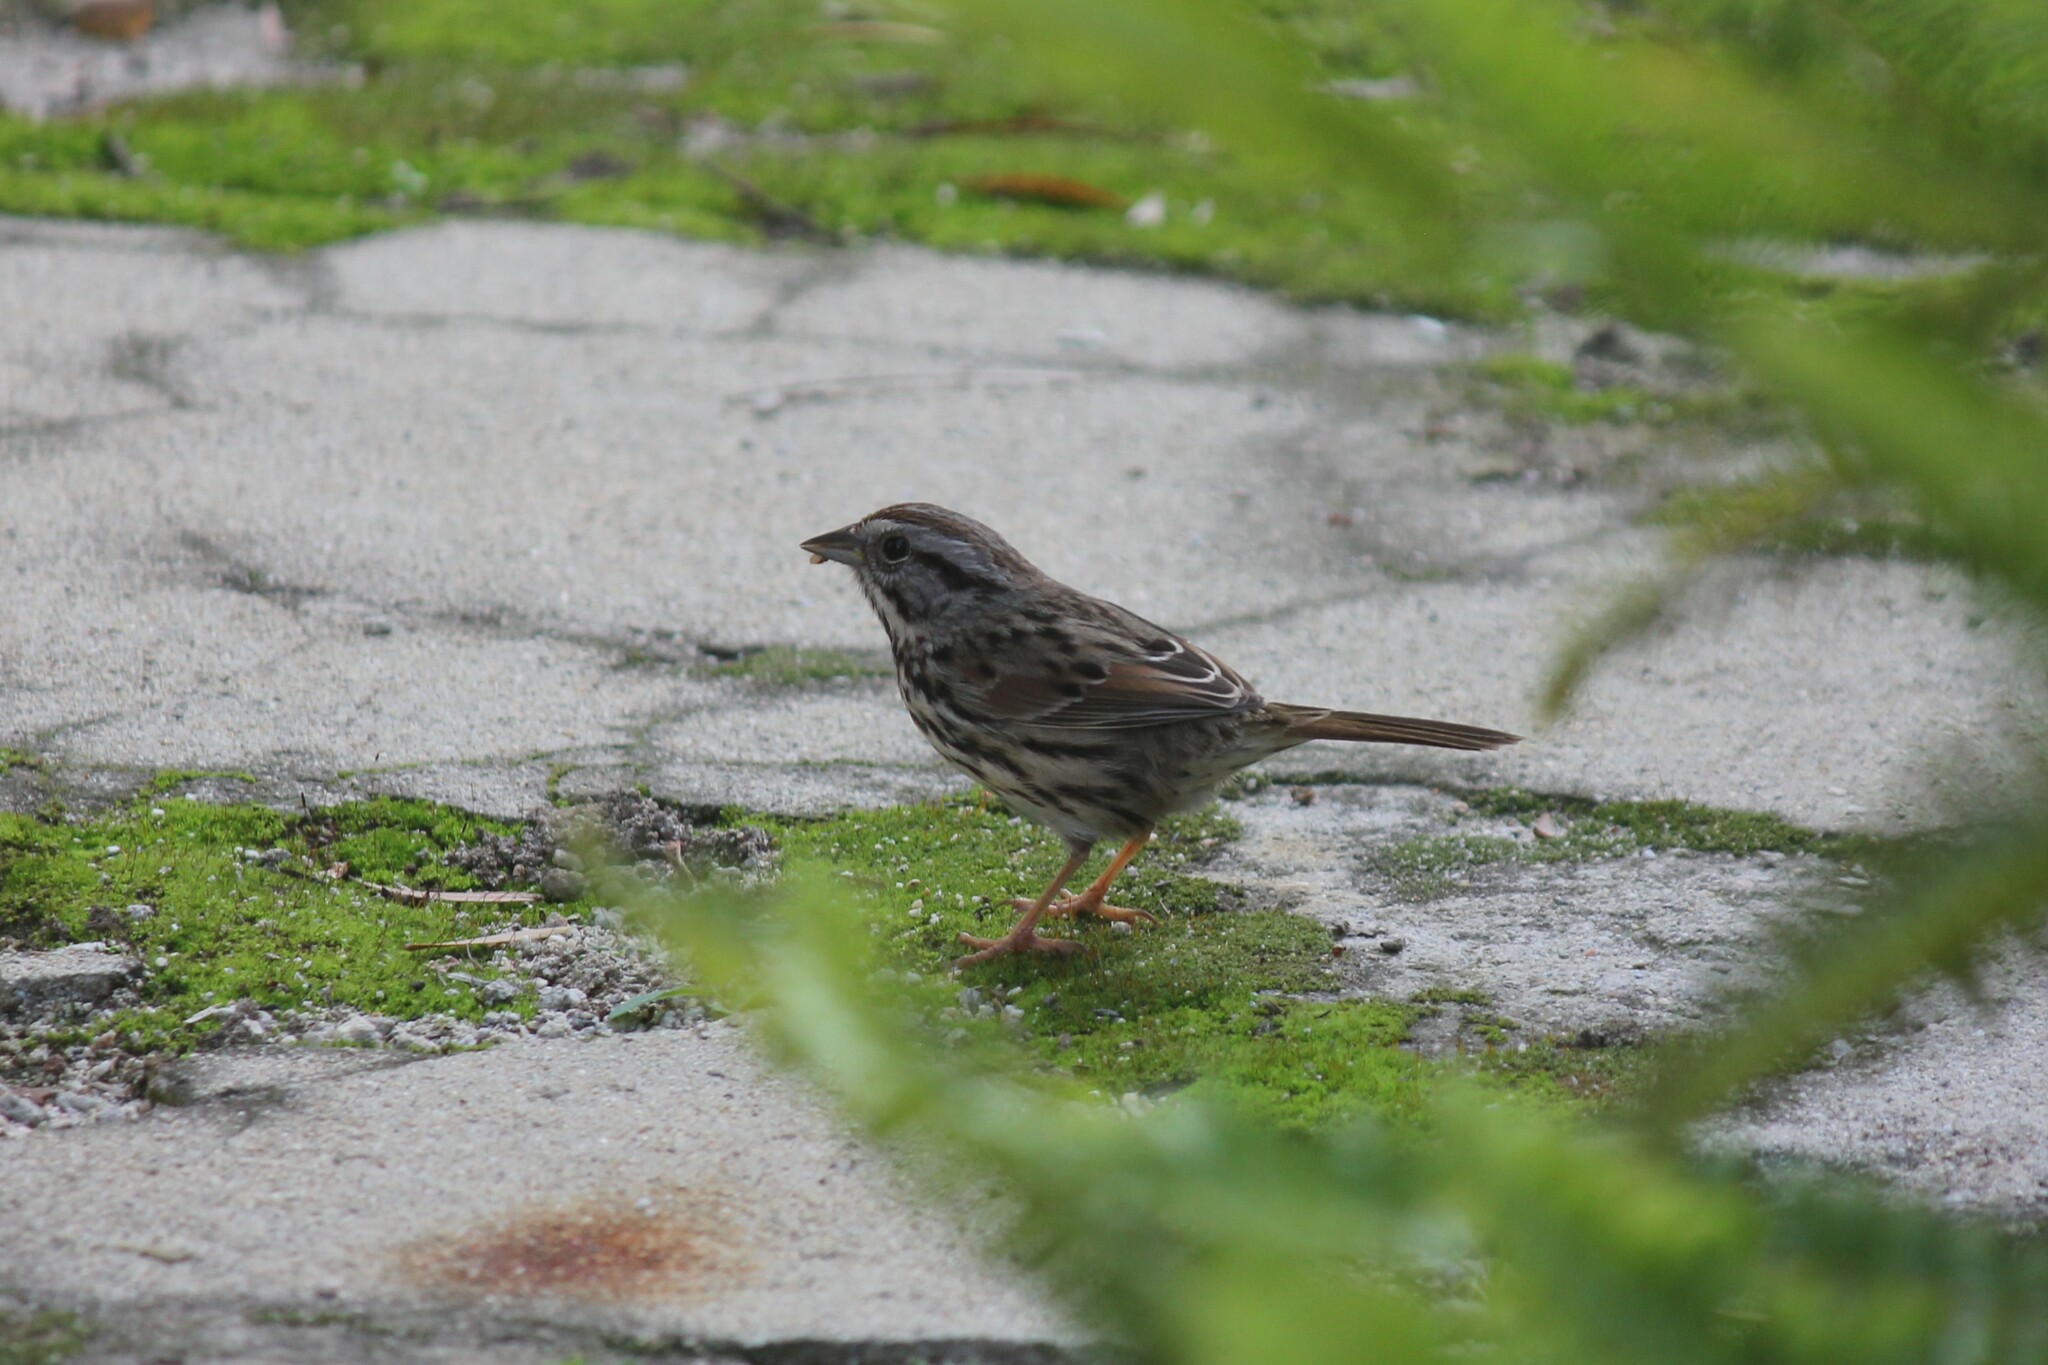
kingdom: Animalia
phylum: Chordata
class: Aves
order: Passeriformes
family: Passerellidae
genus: Melospiza
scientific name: Melospiza melodia
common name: Song sparrow
